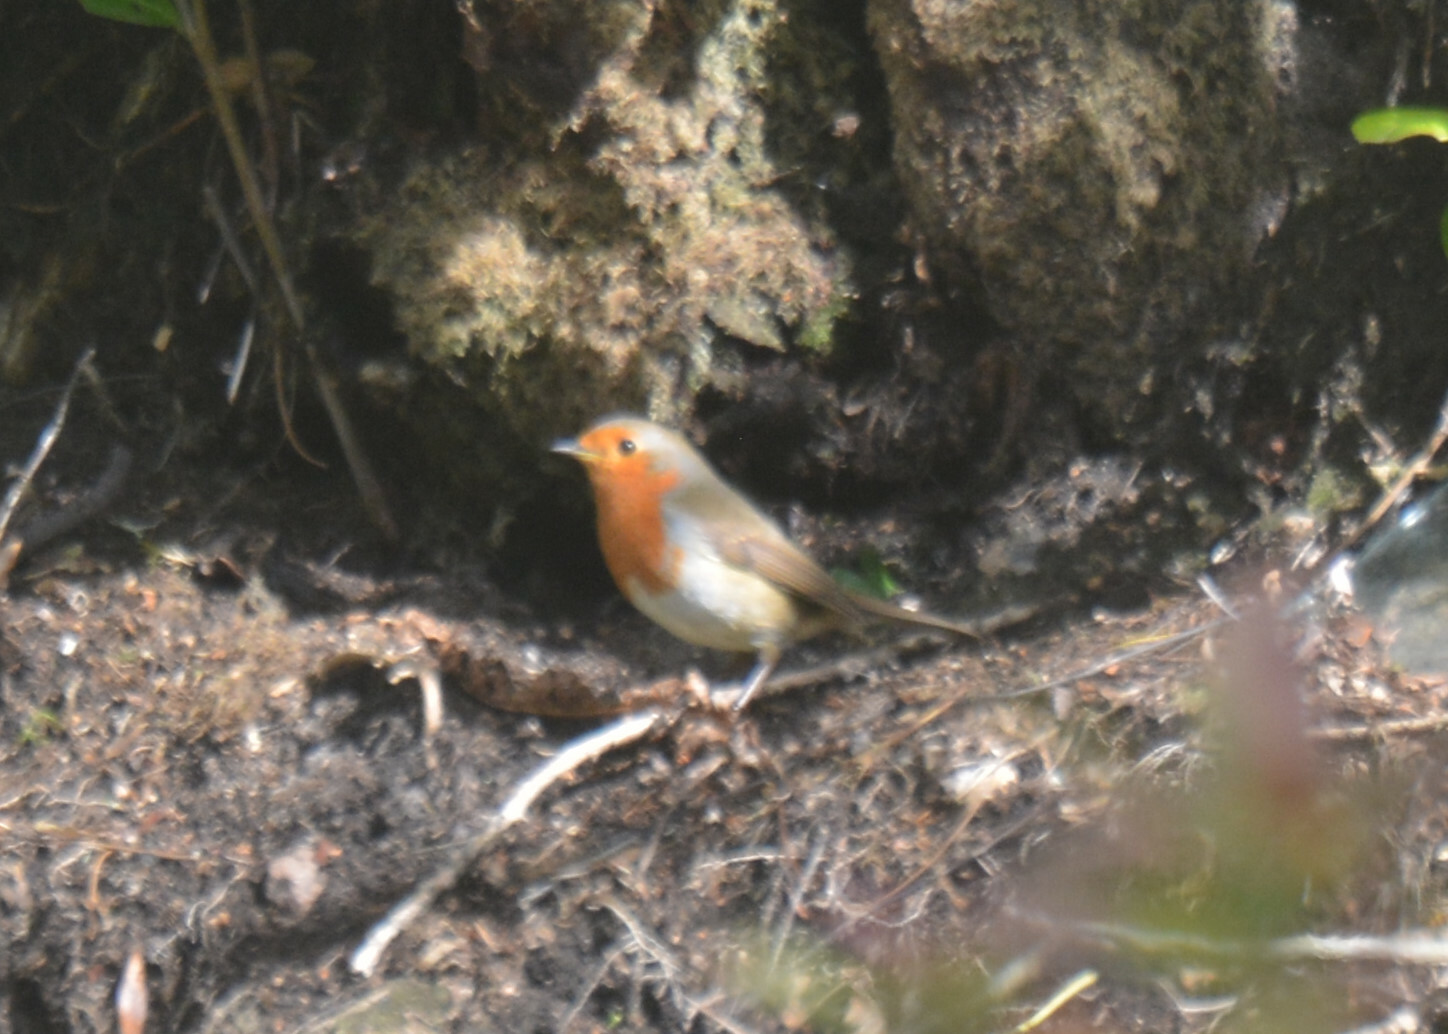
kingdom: Animalia
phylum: Chordata
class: Aves
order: Passeriformes
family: Muscicapidae
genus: Erithacus
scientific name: Erithacus rubecula
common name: European robin
